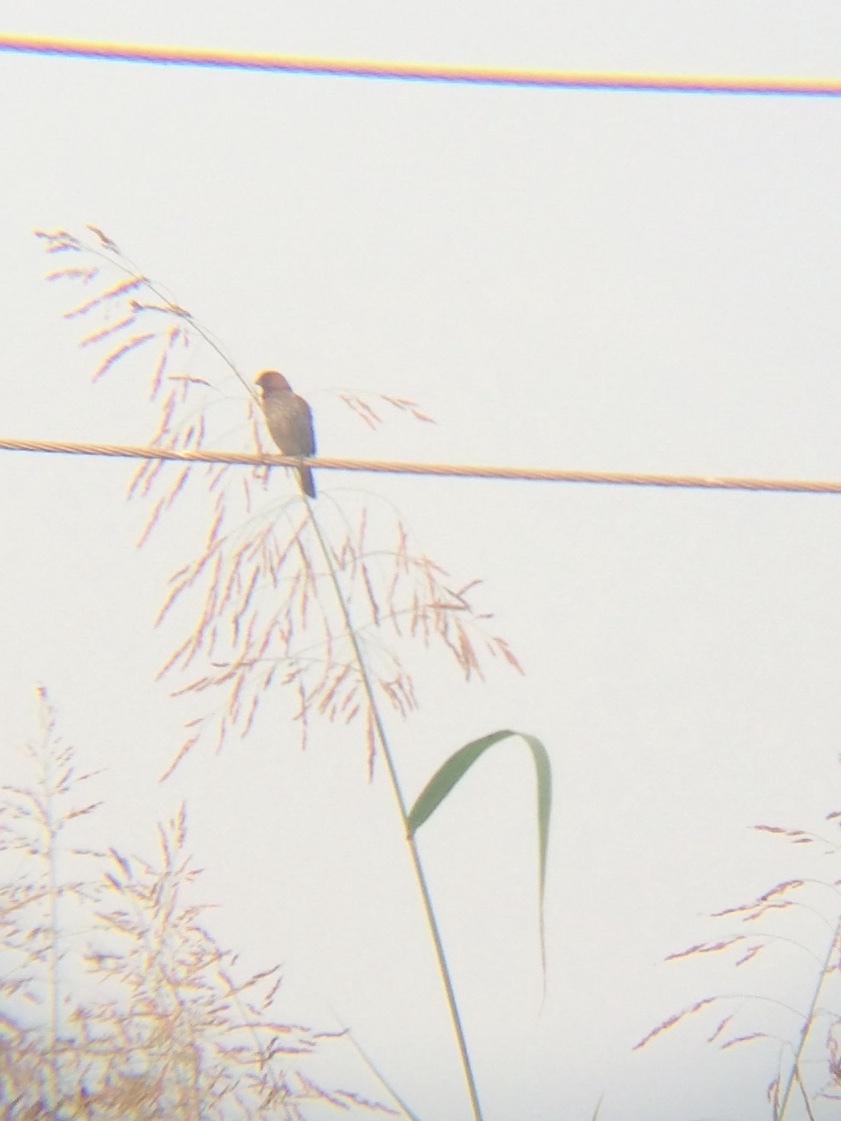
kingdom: Animalia
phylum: Chordata
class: Aves
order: Passeriformes
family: Estrildidae
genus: Lonchura
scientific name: Lonchura punctulata
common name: Scaly-breasted munia
